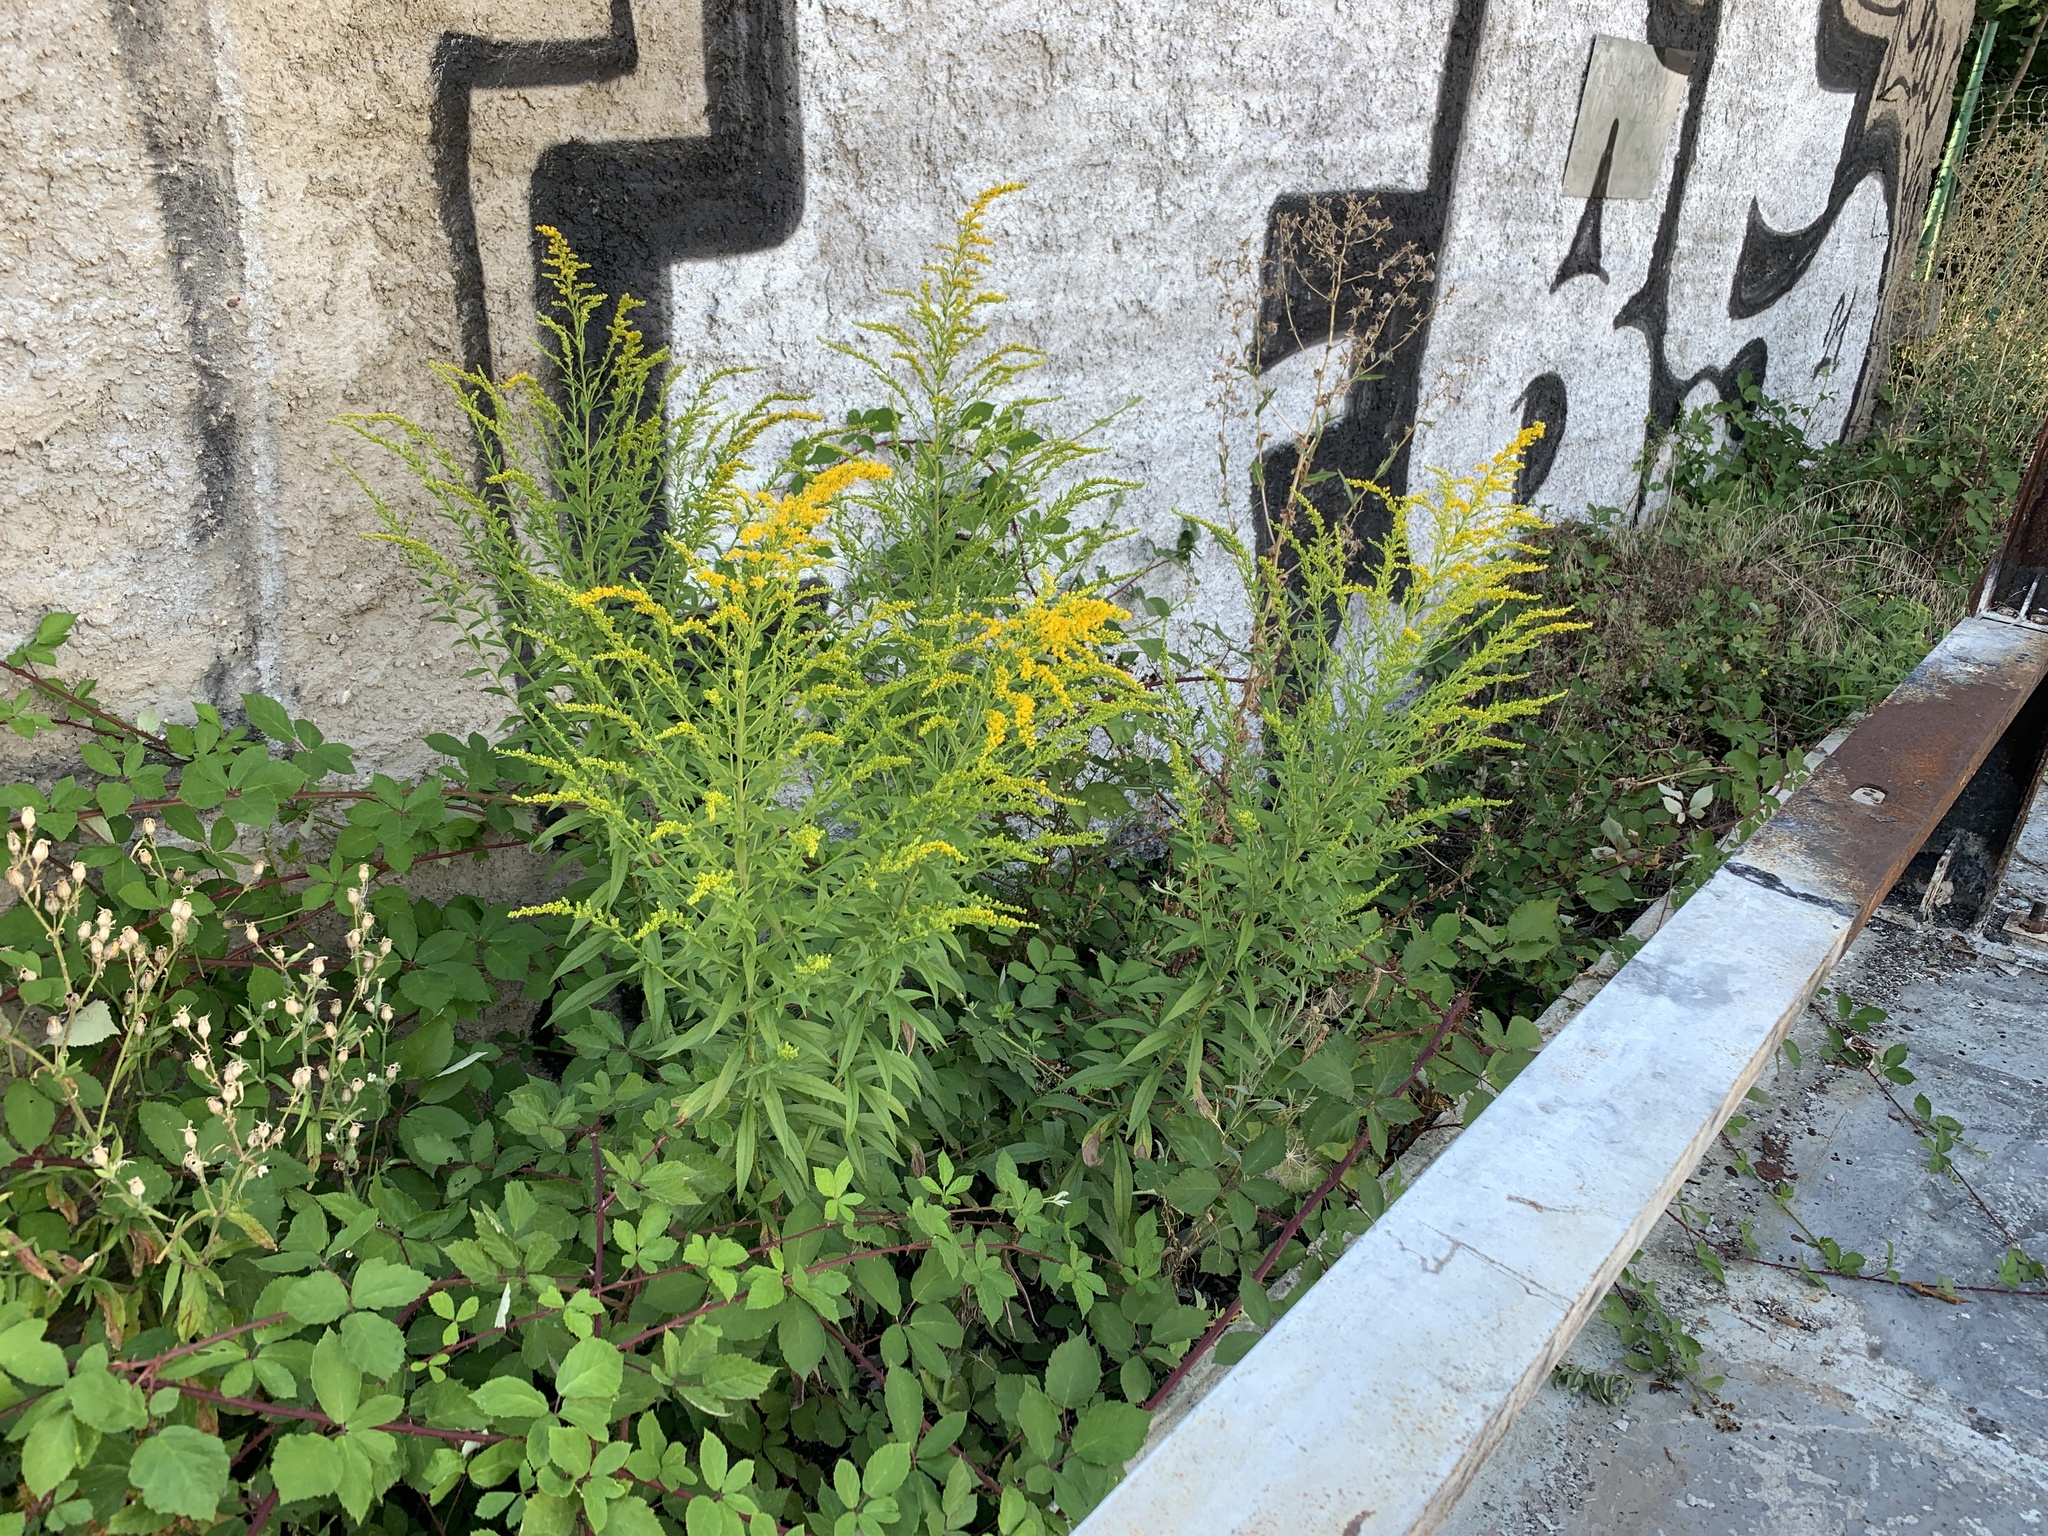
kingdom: Plantae
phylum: Tracheophyta
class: Magnoliopsida
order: Asterales
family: Asteraceae
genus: Solidago
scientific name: Solidago canadensis
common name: Canada goldenrod
